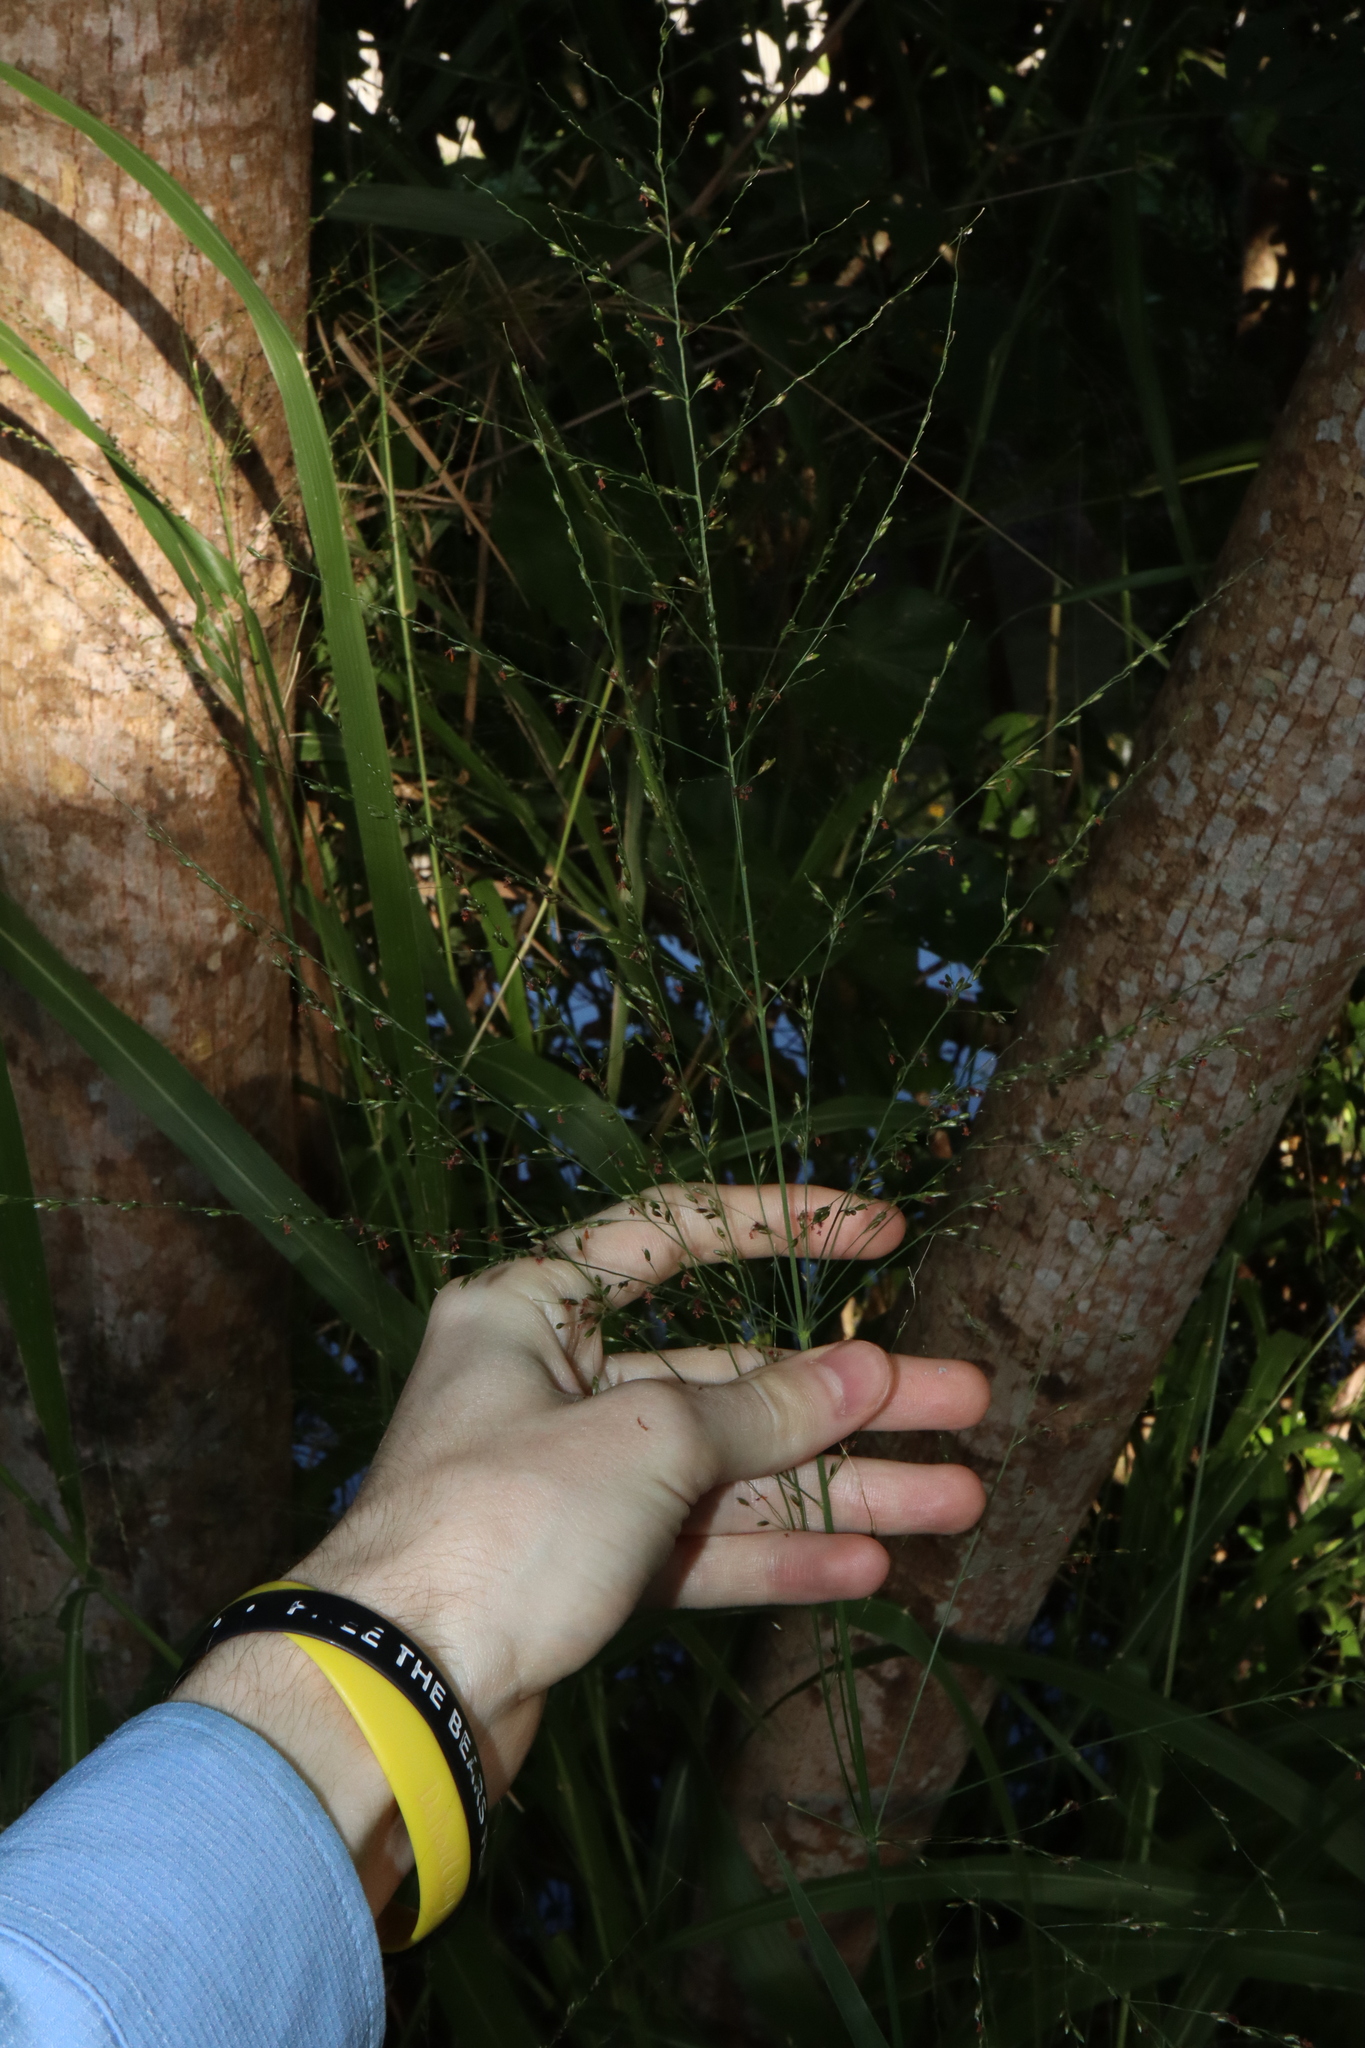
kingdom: Plantae
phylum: Tracheophyta
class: Liliopsida
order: Poales
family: Poaceae
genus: Megathyrsus
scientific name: Megathyrsus maximus
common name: Guineagrass
